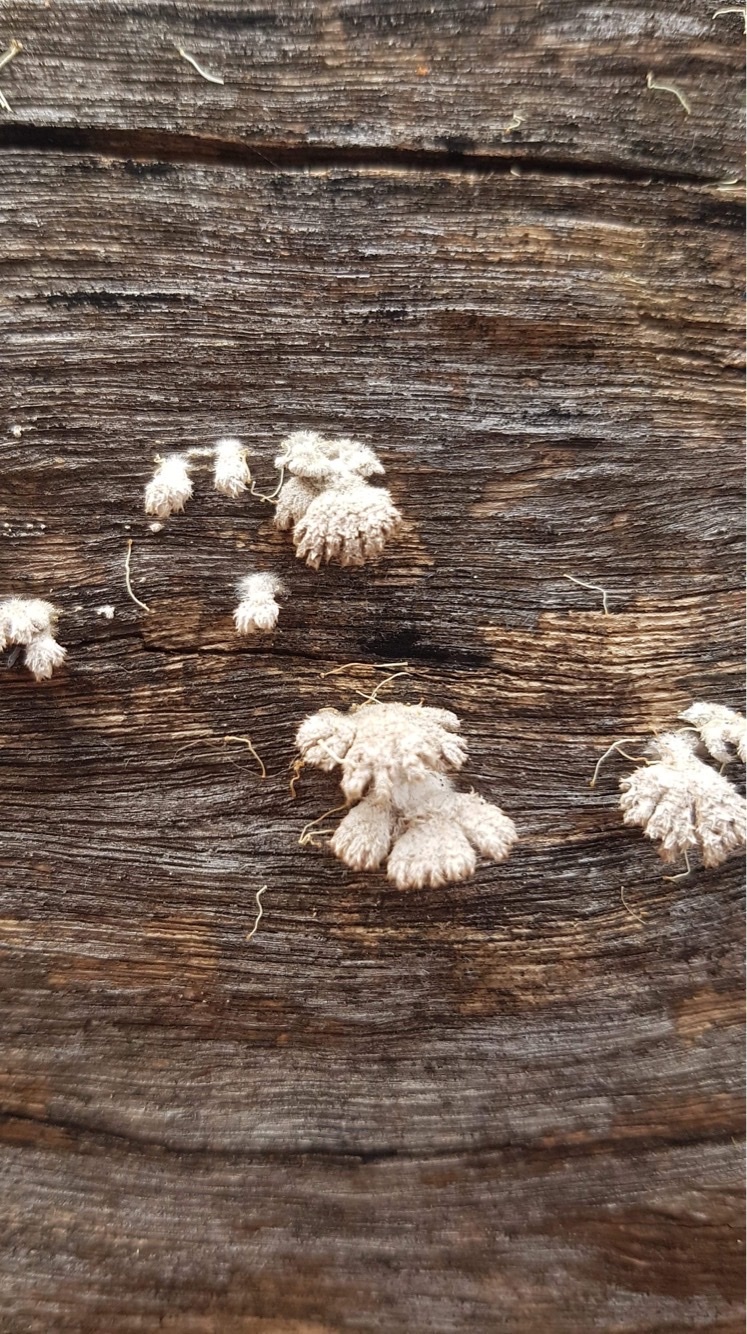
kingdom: Fungi
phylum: Basidiomycota
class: Agaricomycetes
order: Agaricales
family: Schizophyllaceae
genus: Schizophyllum
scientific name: Schizophyllum commune
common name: Common porecrust
